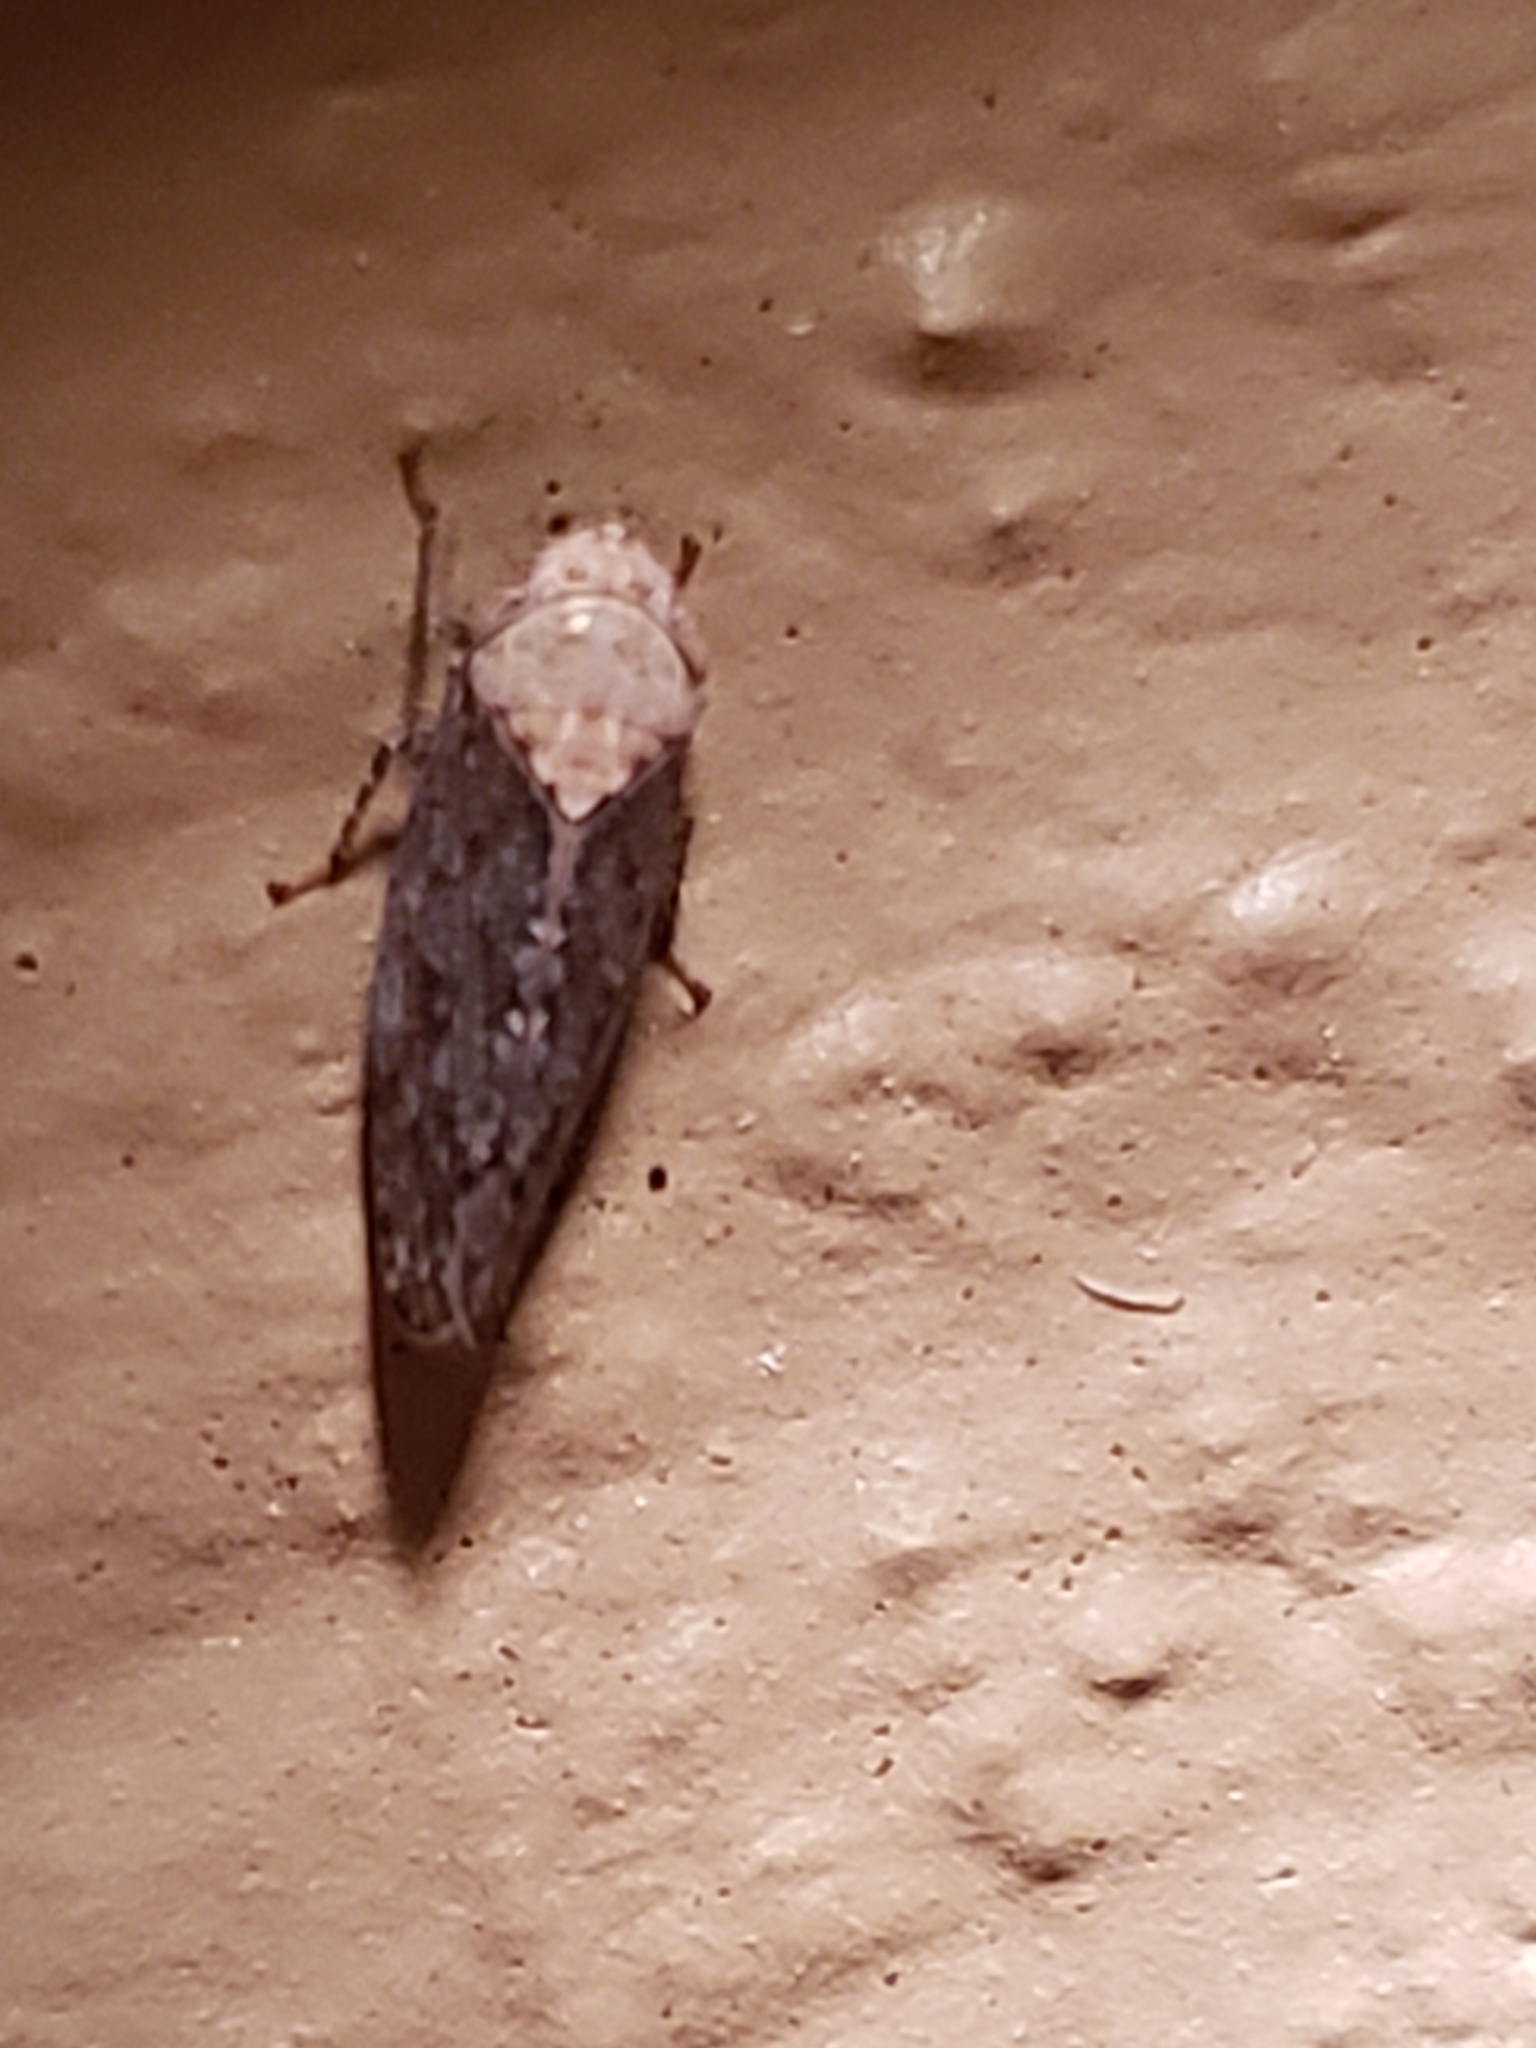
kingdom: Animalia
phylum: Arthropoda
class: Insecta
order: Hemiptera
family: Cicadellidae
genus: Paraphlepsius
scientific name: Paraphlepsius fulvidorsum
